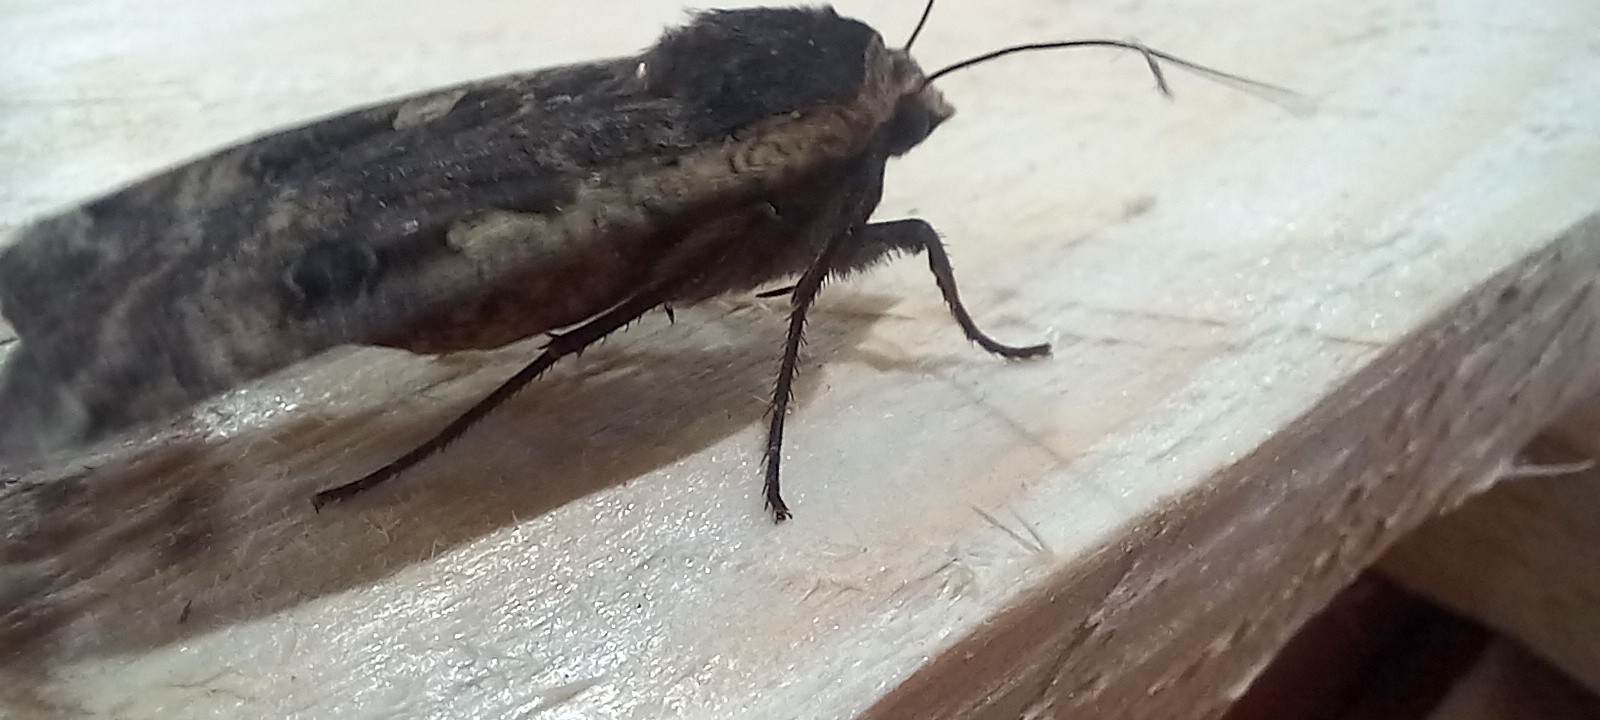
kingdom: Animalia
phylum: Arthropoda
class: Insecta
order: Lepidoptera
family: Noctuidae
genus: Noctua
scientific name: Noctua pronuba
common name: Large yellow underwing
